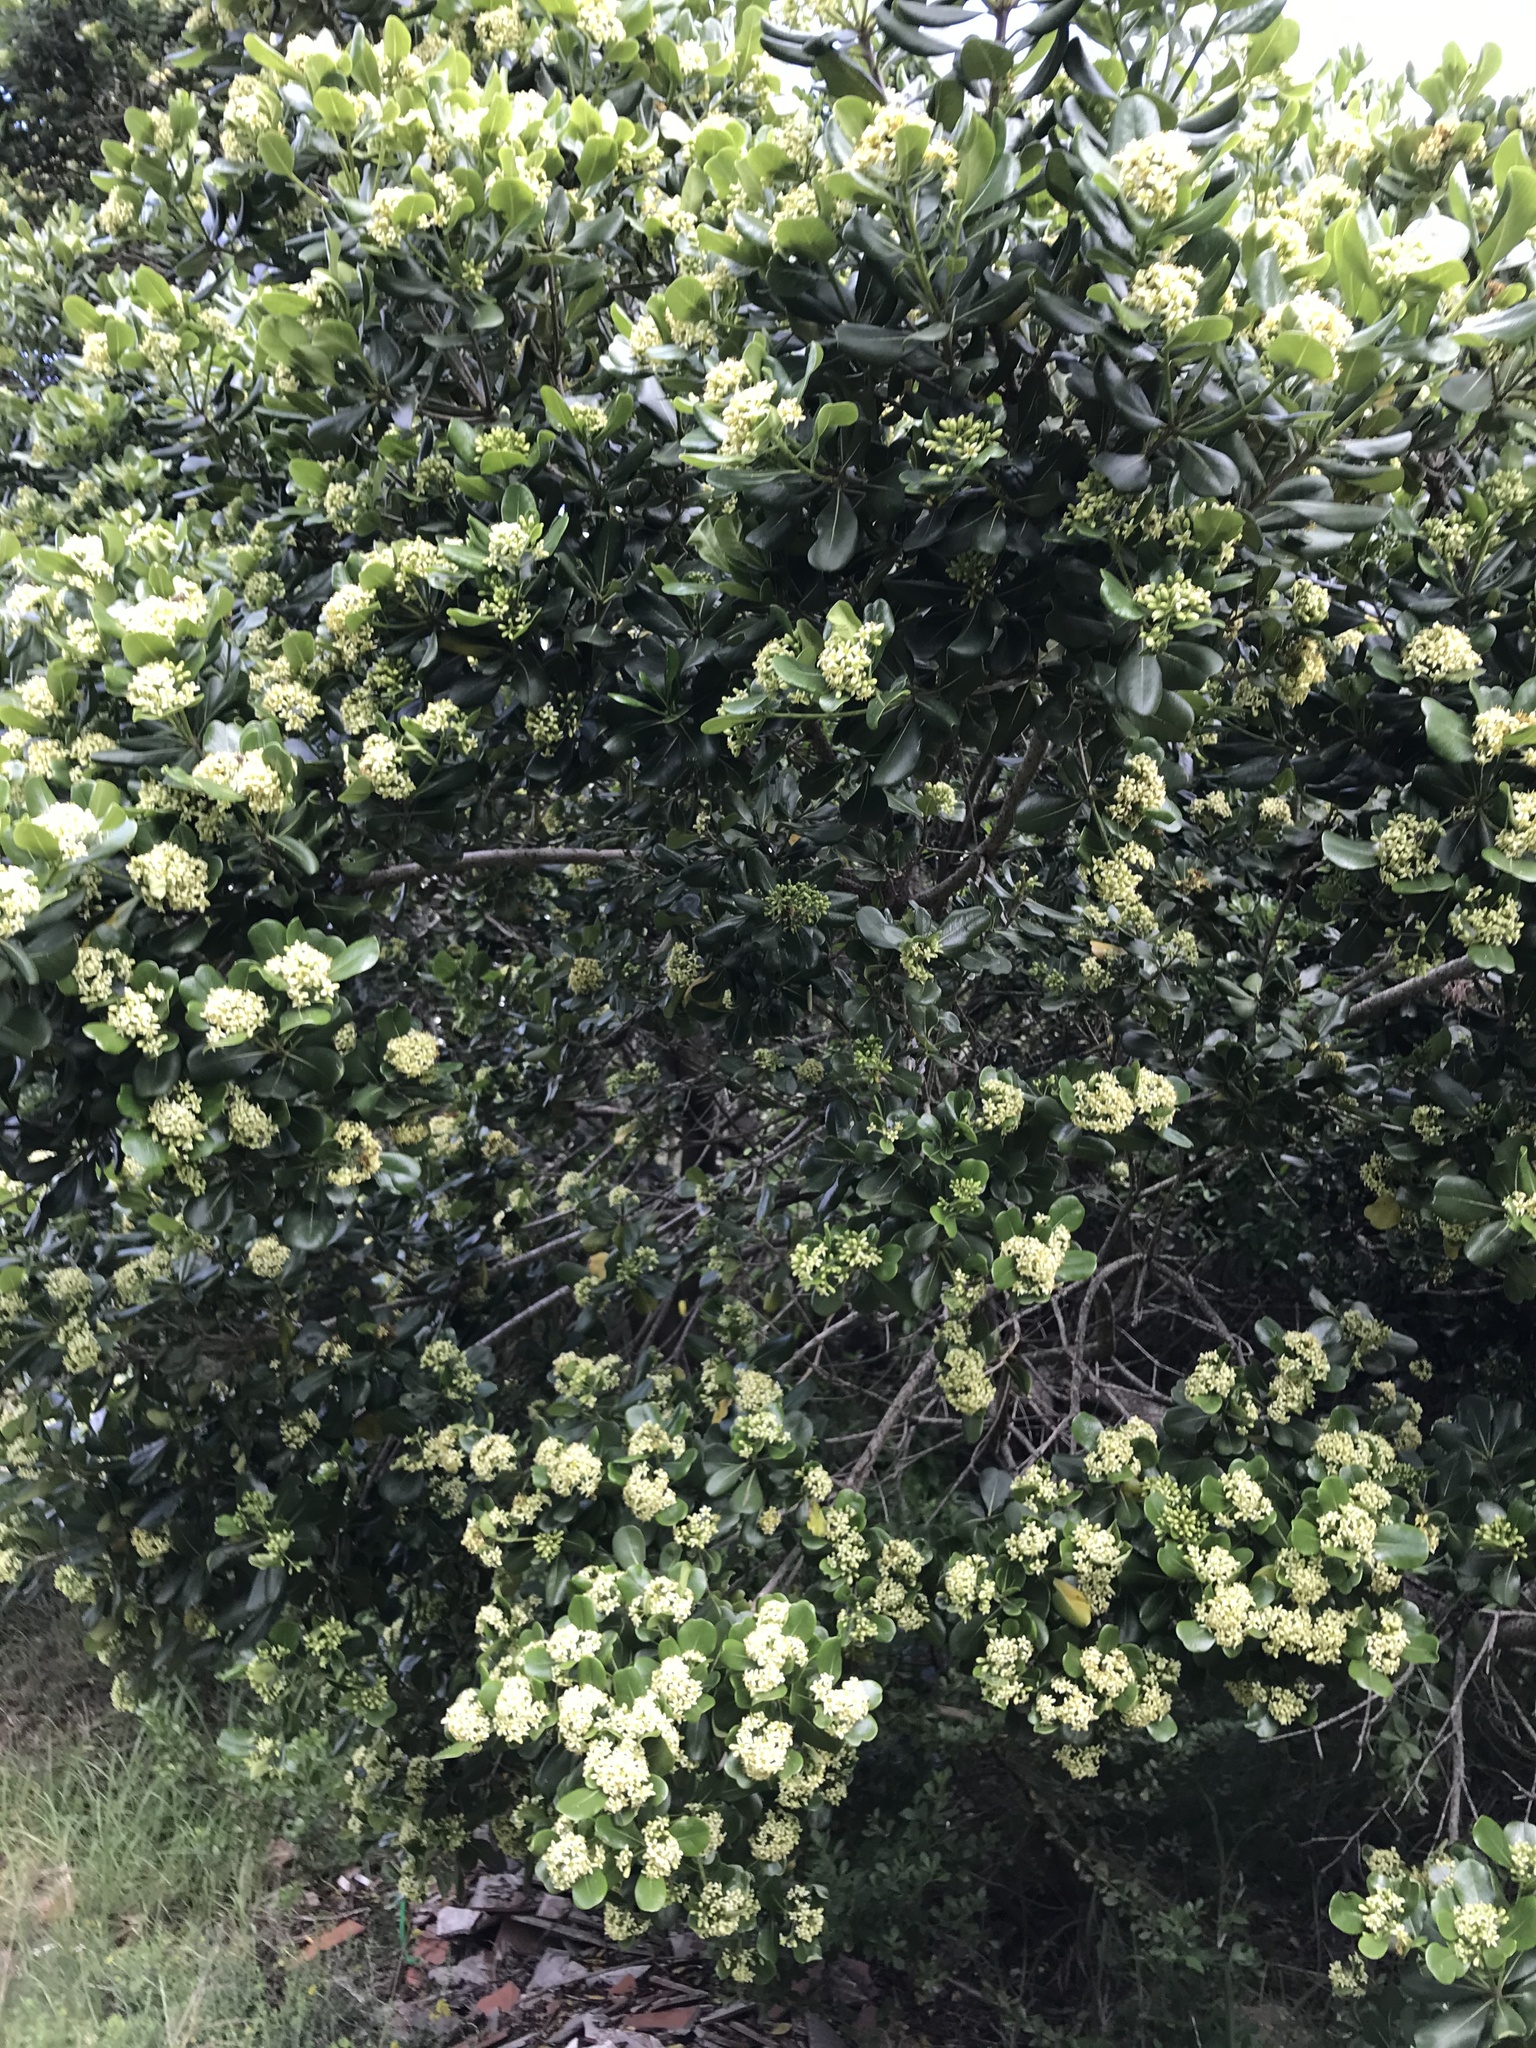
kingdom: Plantae
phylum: Tracheophyta
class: Magnoliopsida
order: Apiales
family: Pittosporaceae
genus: Pittosporum
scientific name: Pittosporum viridiflorum
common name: Cape cheesewood
